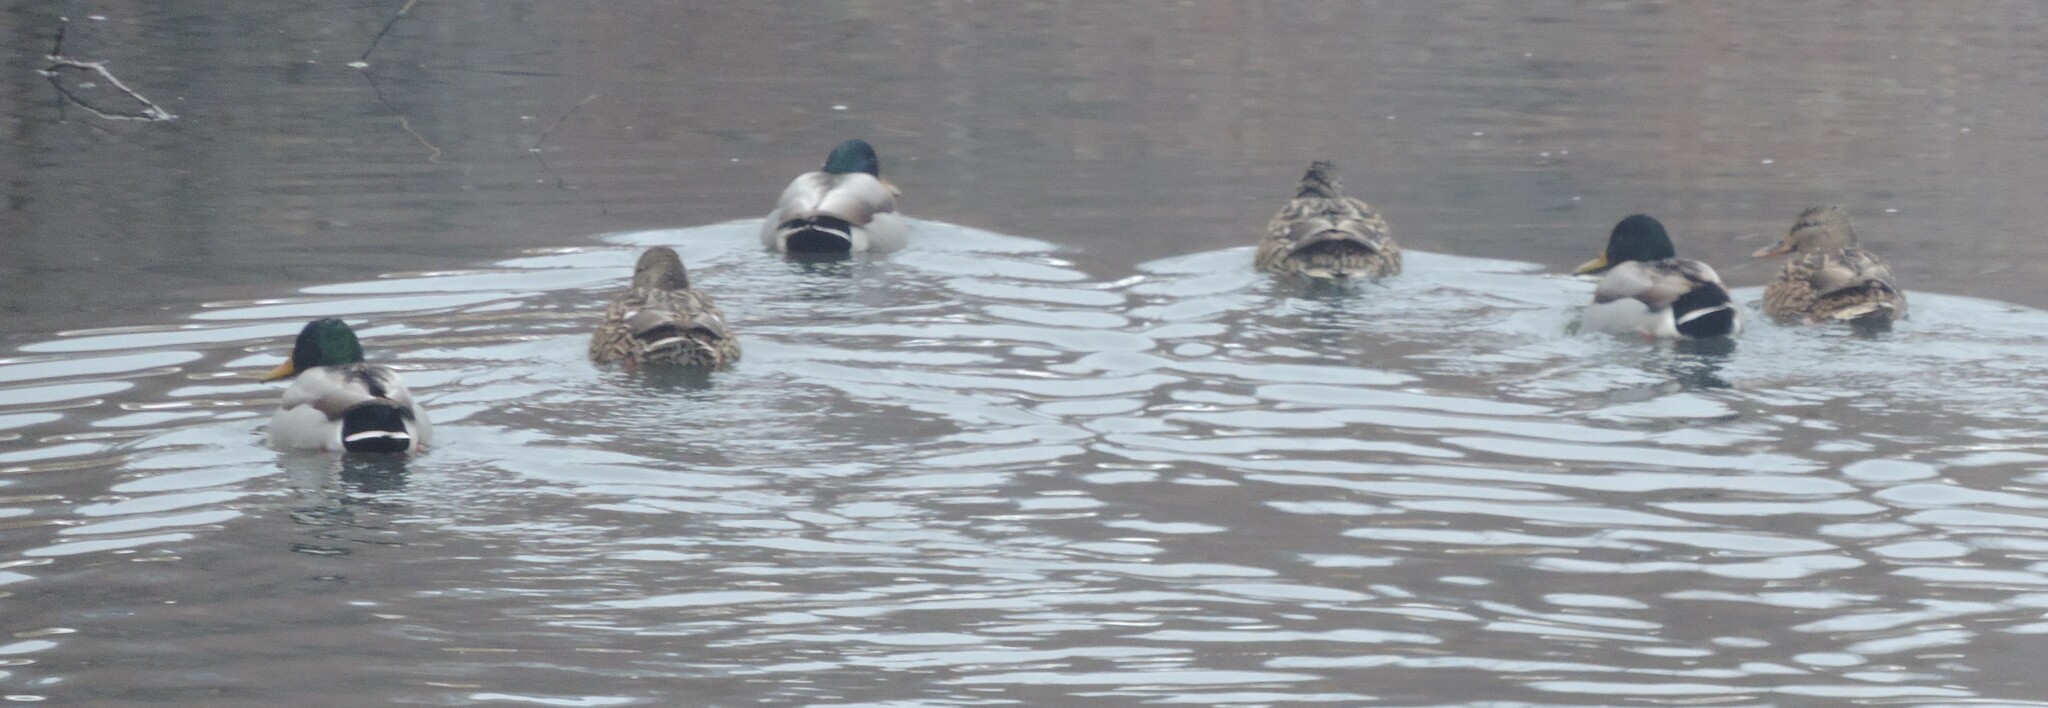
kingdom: Animalia
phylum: Chordata
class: Aves
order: Anseriformes
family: Anatidae
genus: Anas
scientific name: Anas platyrhynchos
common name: Mallard
